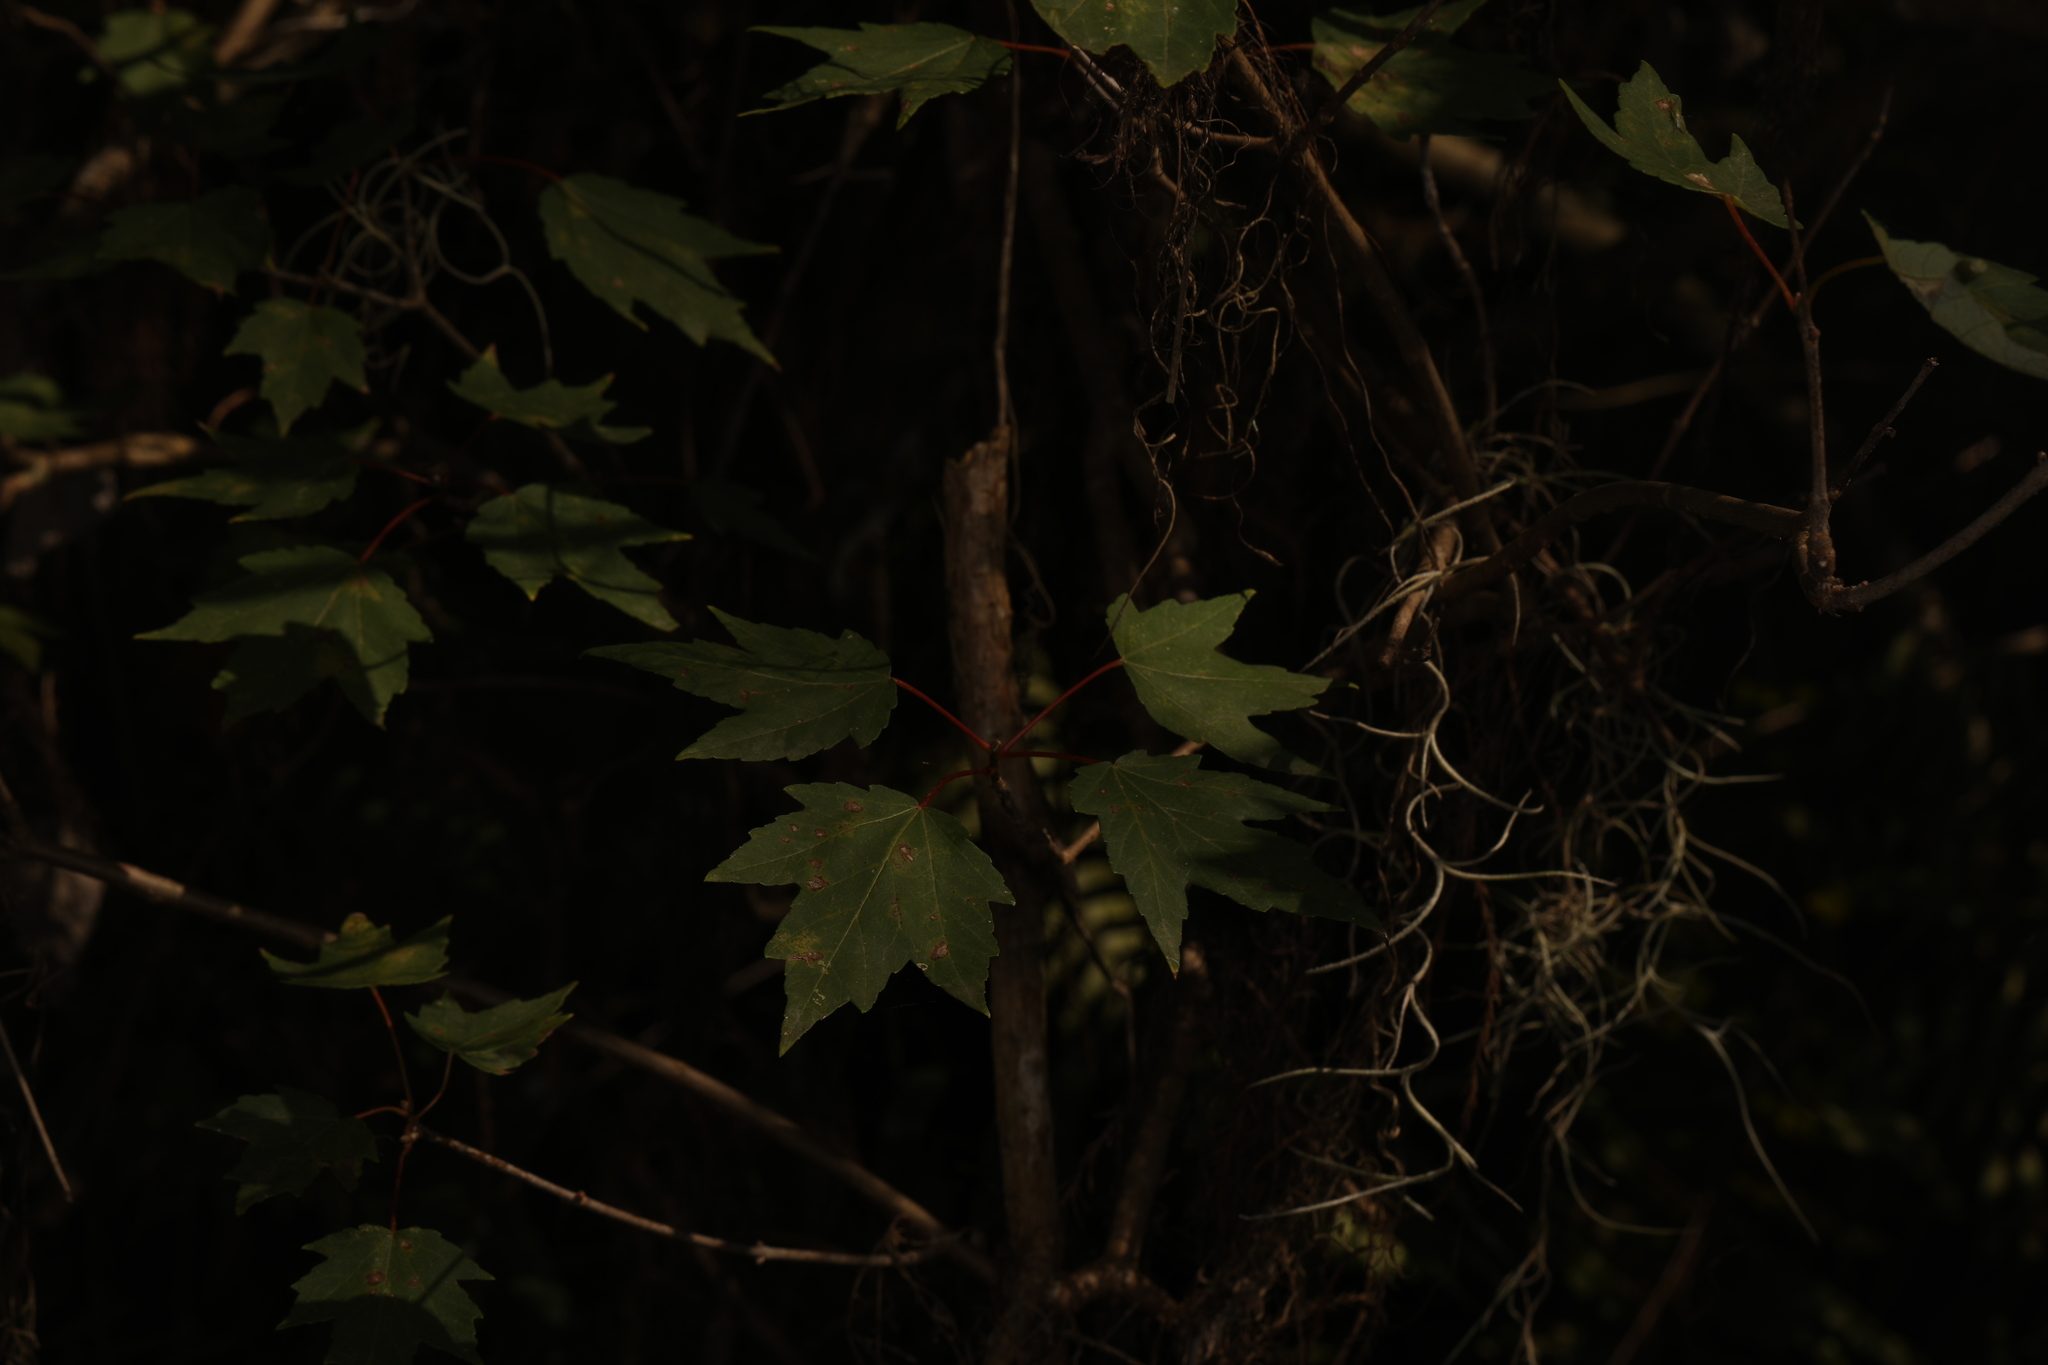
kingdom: Plantae
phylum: Tracheophyta
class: Magnoliopsida
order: Sapindales
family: Sapindaceae
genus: Acer
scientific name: Acer rubrum
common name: Red maple
